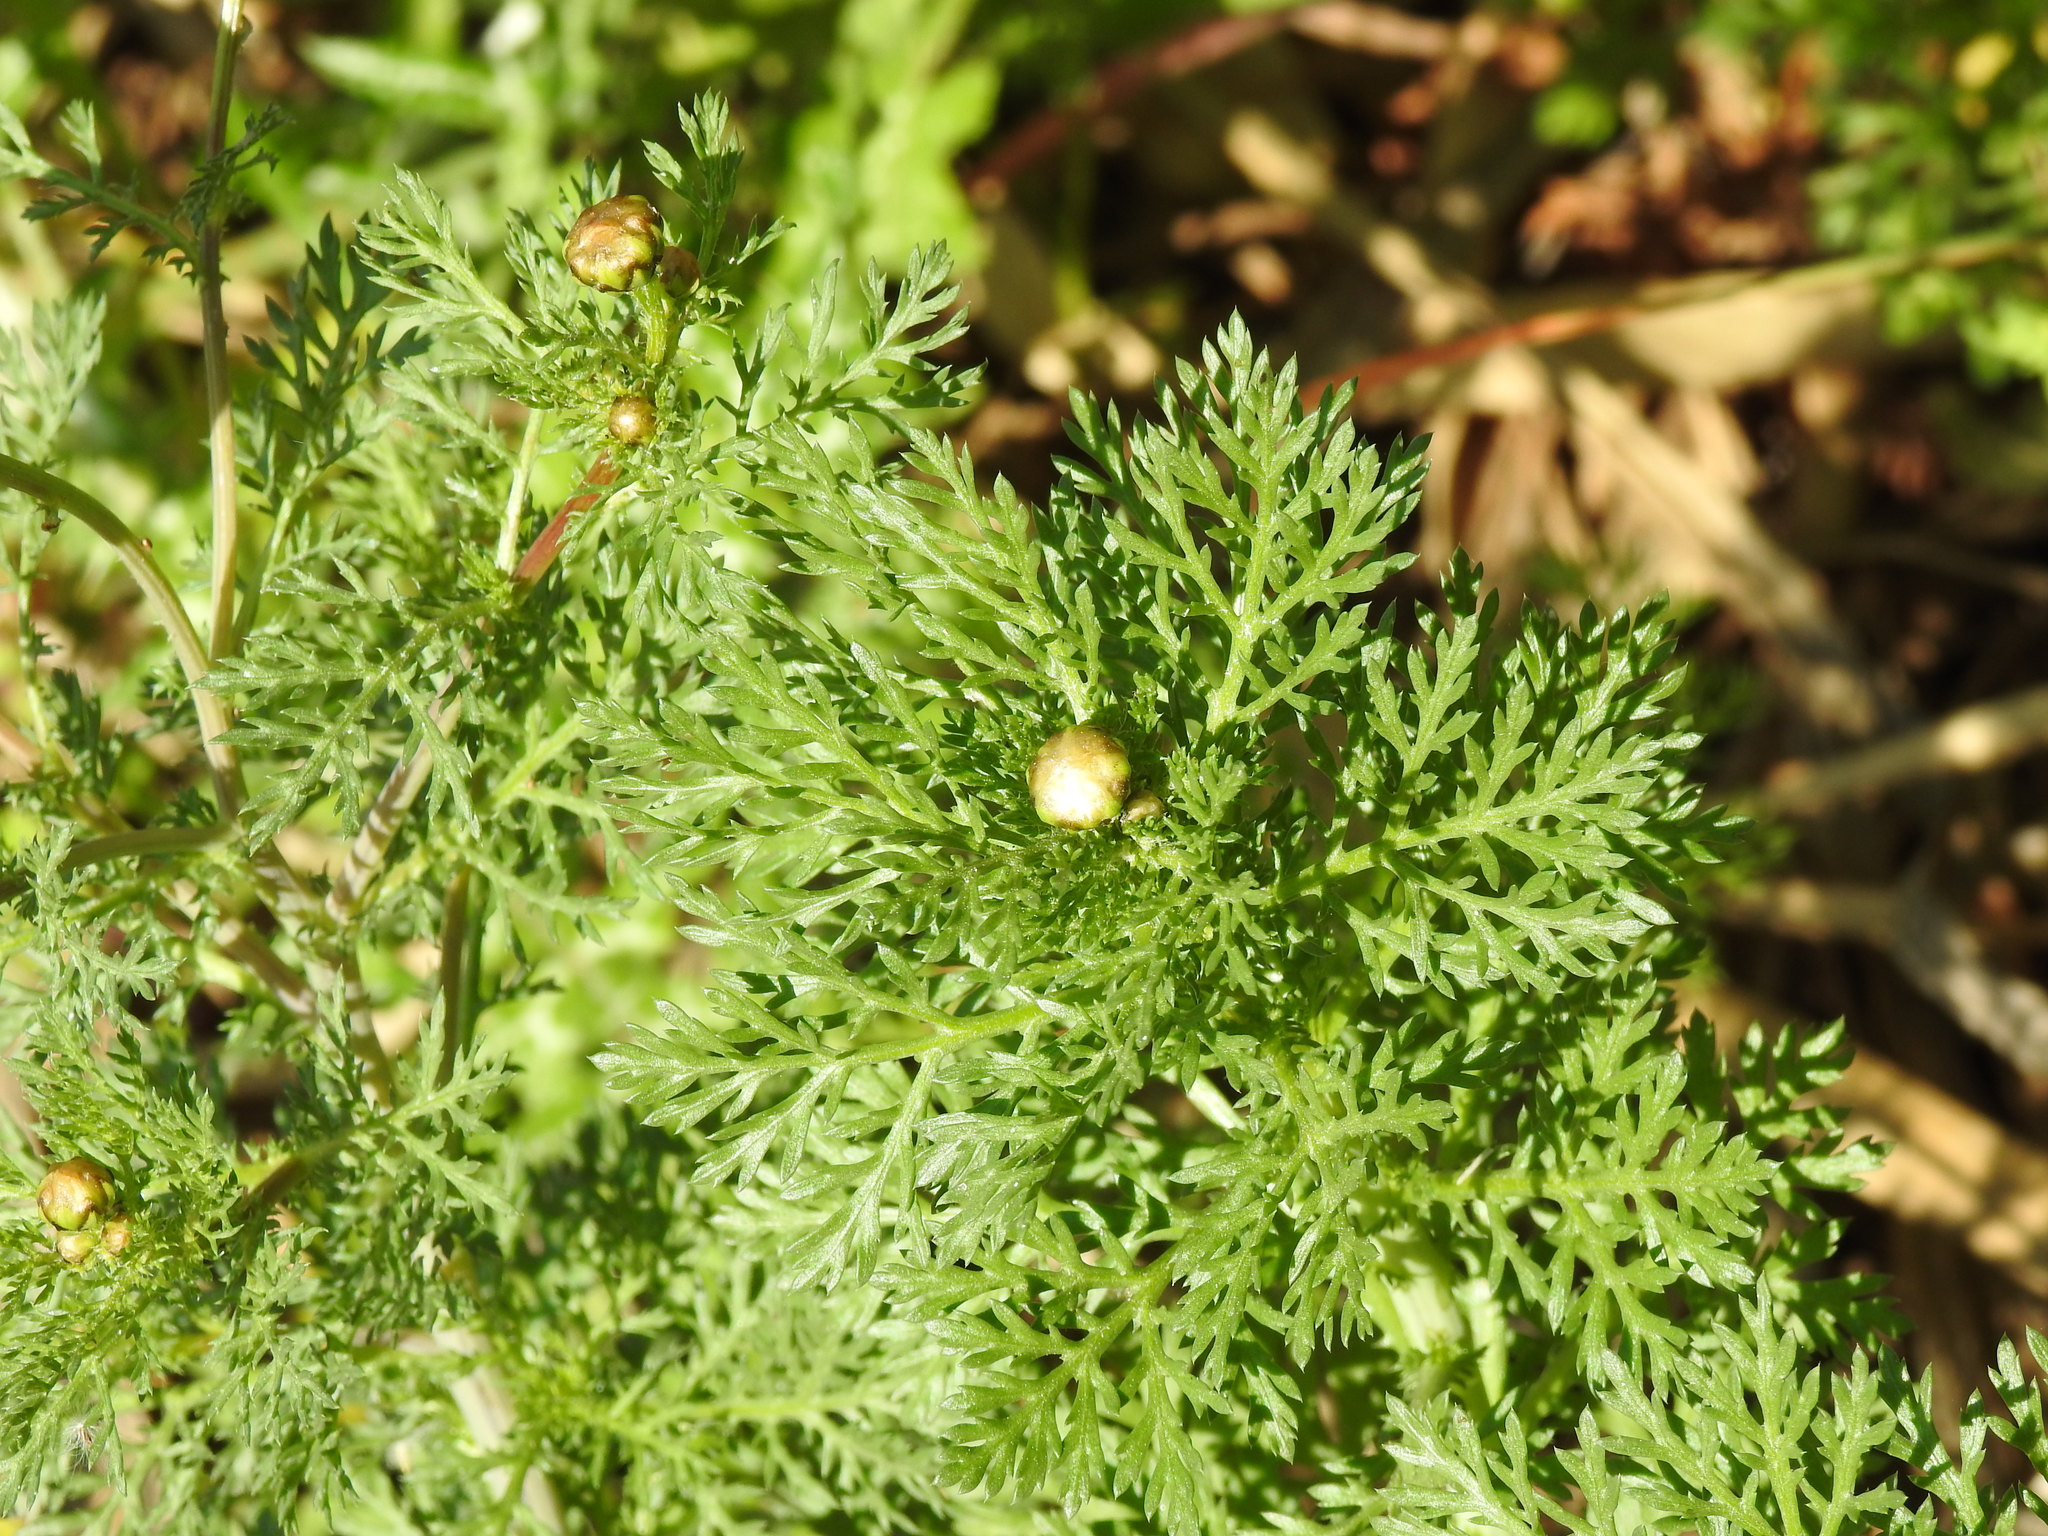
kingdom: Plantae
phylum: Tracheophyta
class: Magnoliopsida
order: Asterales
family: Asteraceae
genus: Glebionis
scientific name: Glebionis coronaria
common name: Crowndaisy
